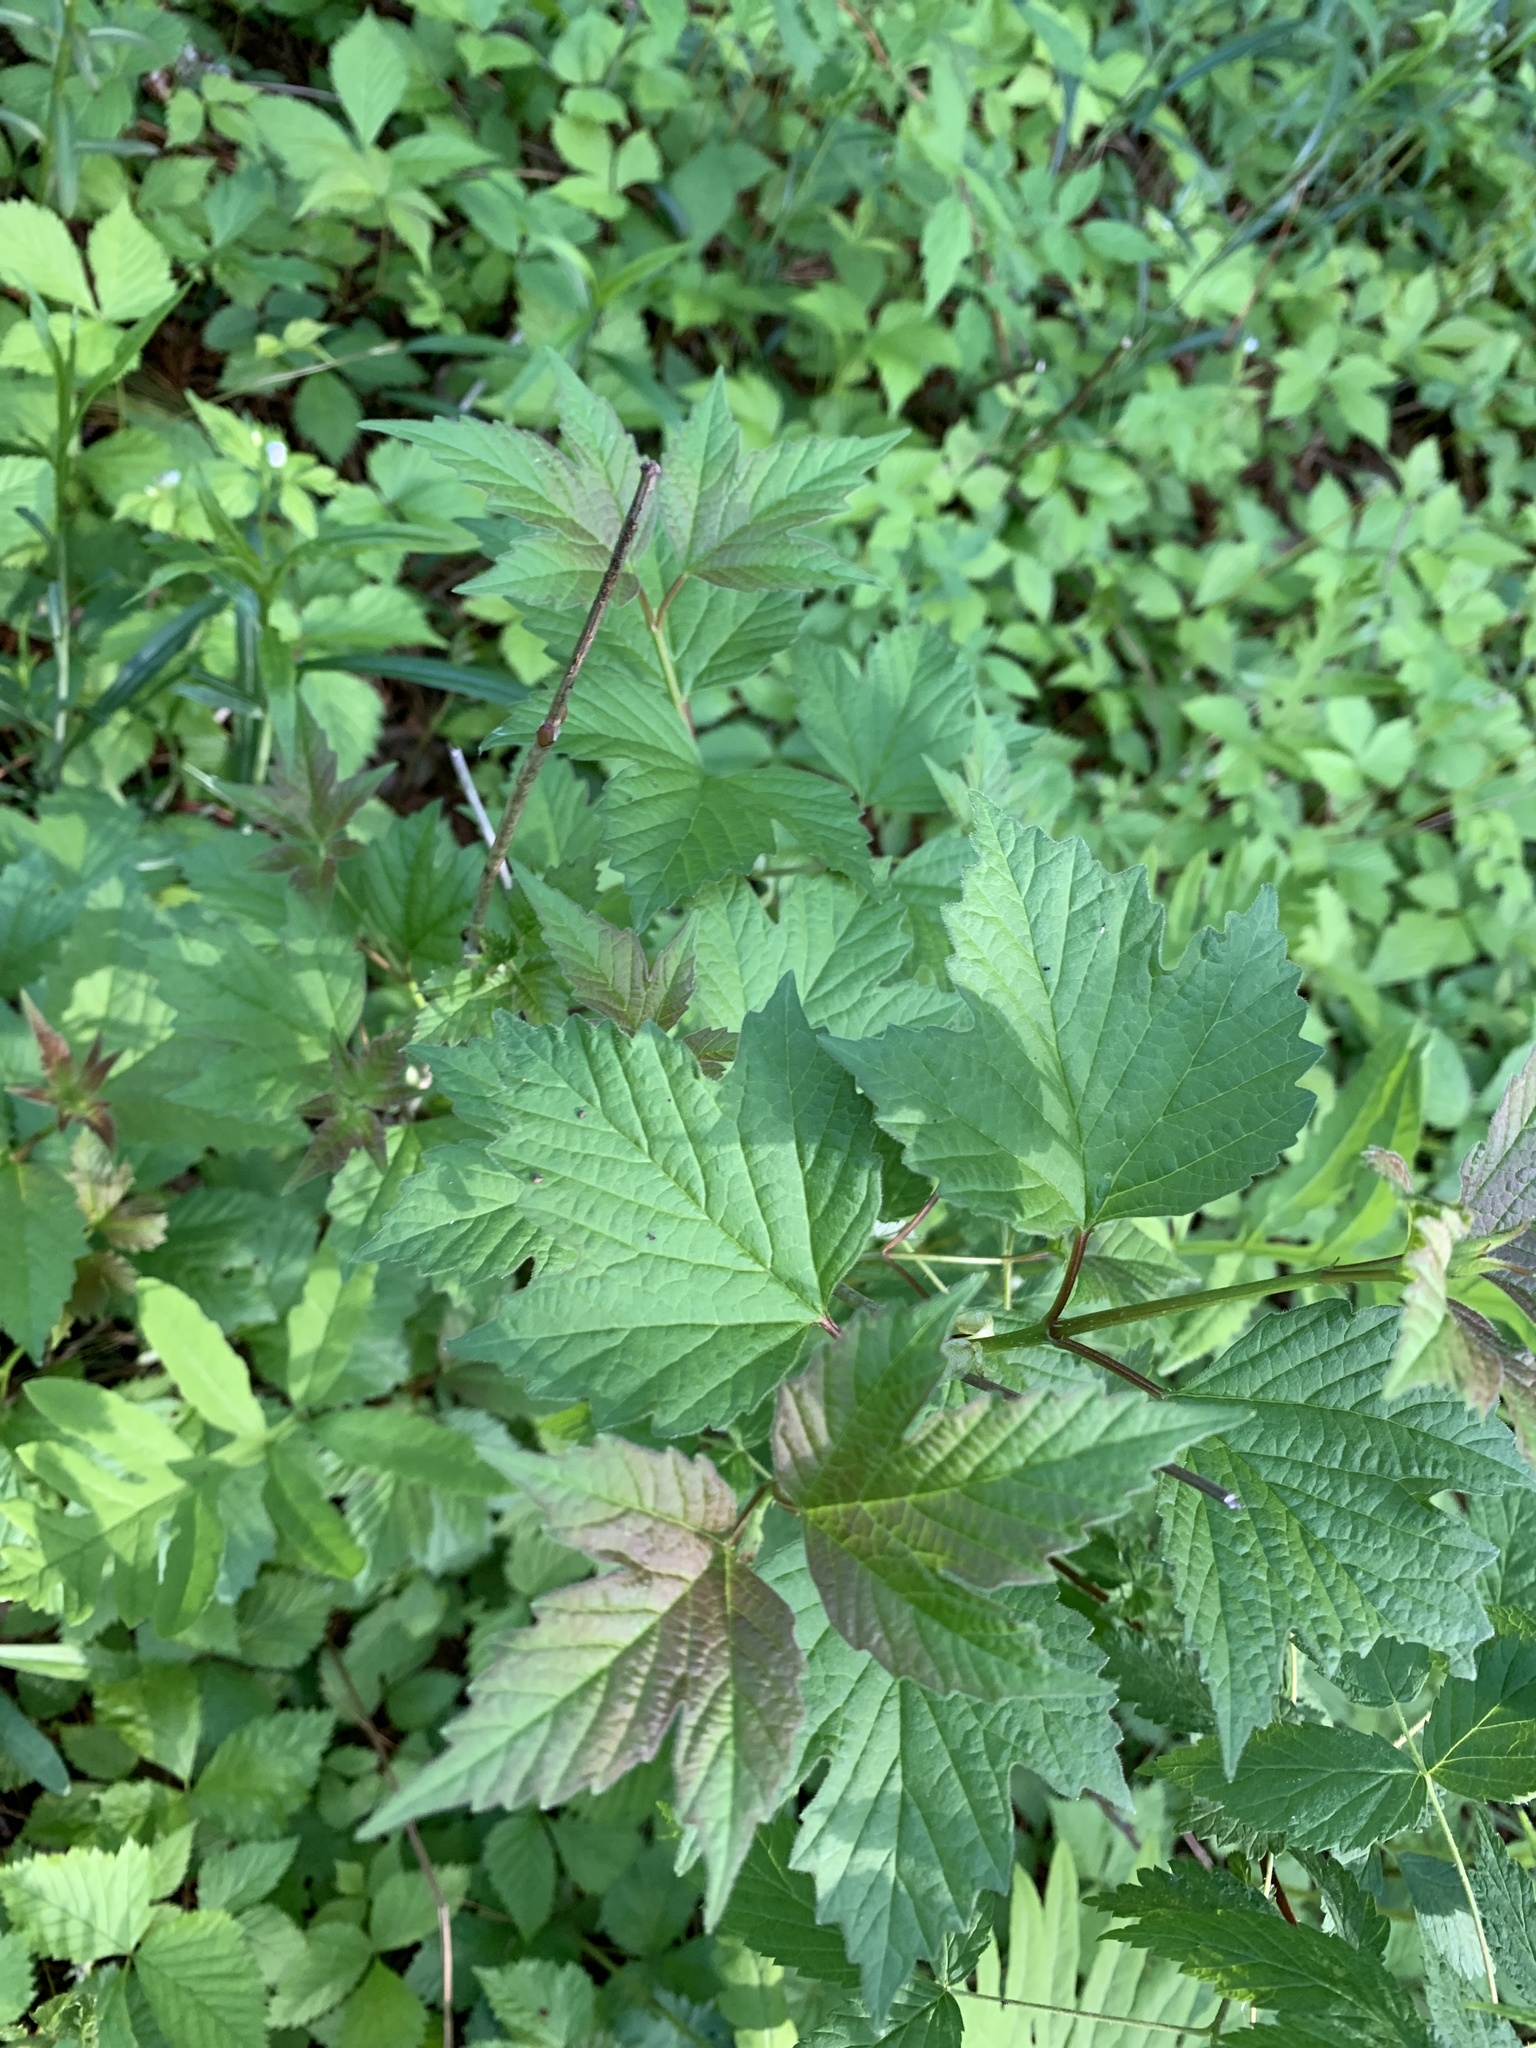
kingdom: Plantae
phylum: Tracheophyta
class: Magnoliopsida
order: Dipsacales
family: Viburnaceae
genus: Viburnum
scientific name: Viburnum opulus
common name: Guelder-rose
